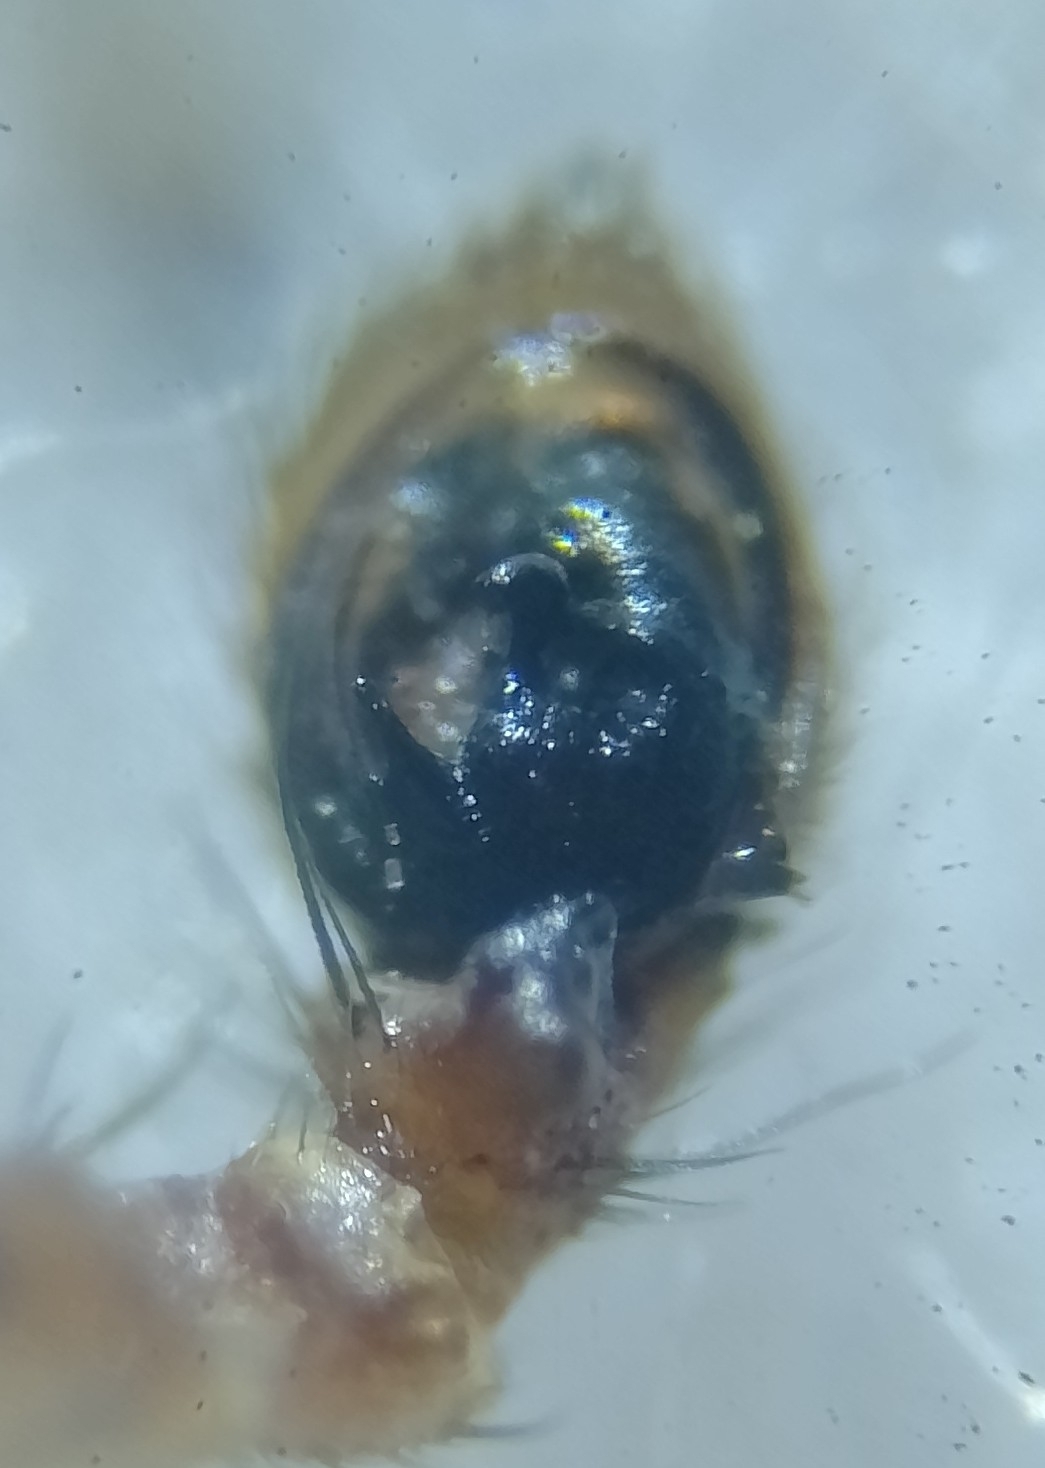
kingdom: Animalia
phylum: Arthropoda
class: Arachnida
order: Araneae
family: Thomisidae
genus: Xysticus
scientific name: Xysticus lanio
